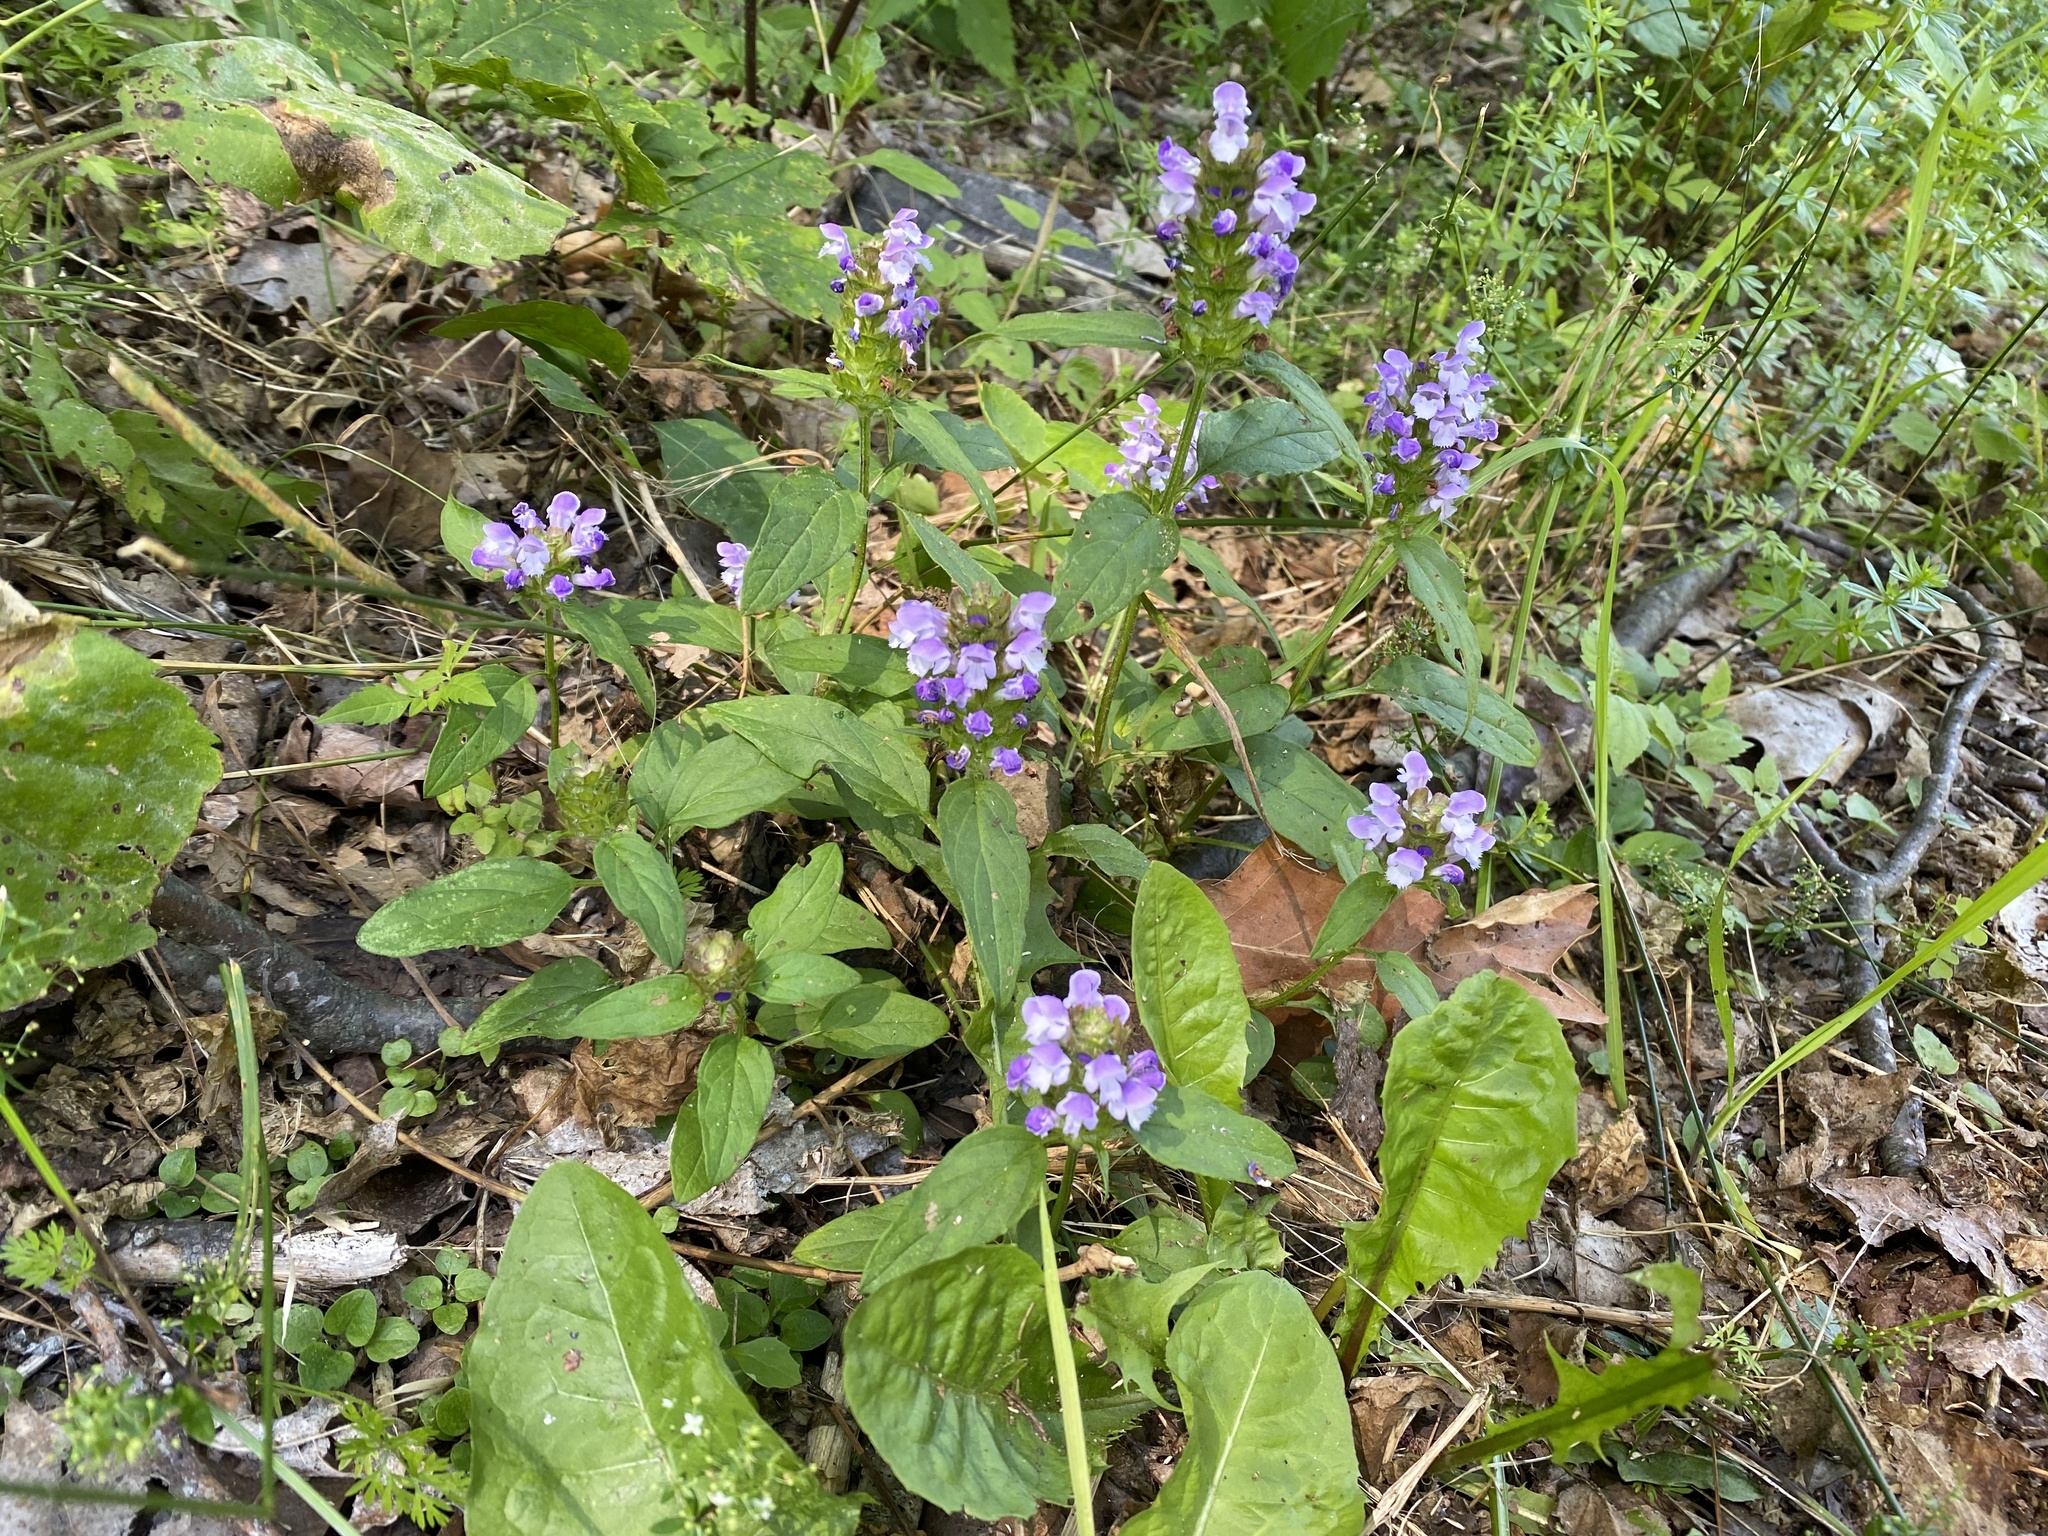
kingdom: Plantae
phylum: Tracheophyta
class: Magnoliopsida
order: Lamiales
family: Lamiaceae
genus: Prunella
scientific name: Prunella vulgaris
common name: Heal-all
